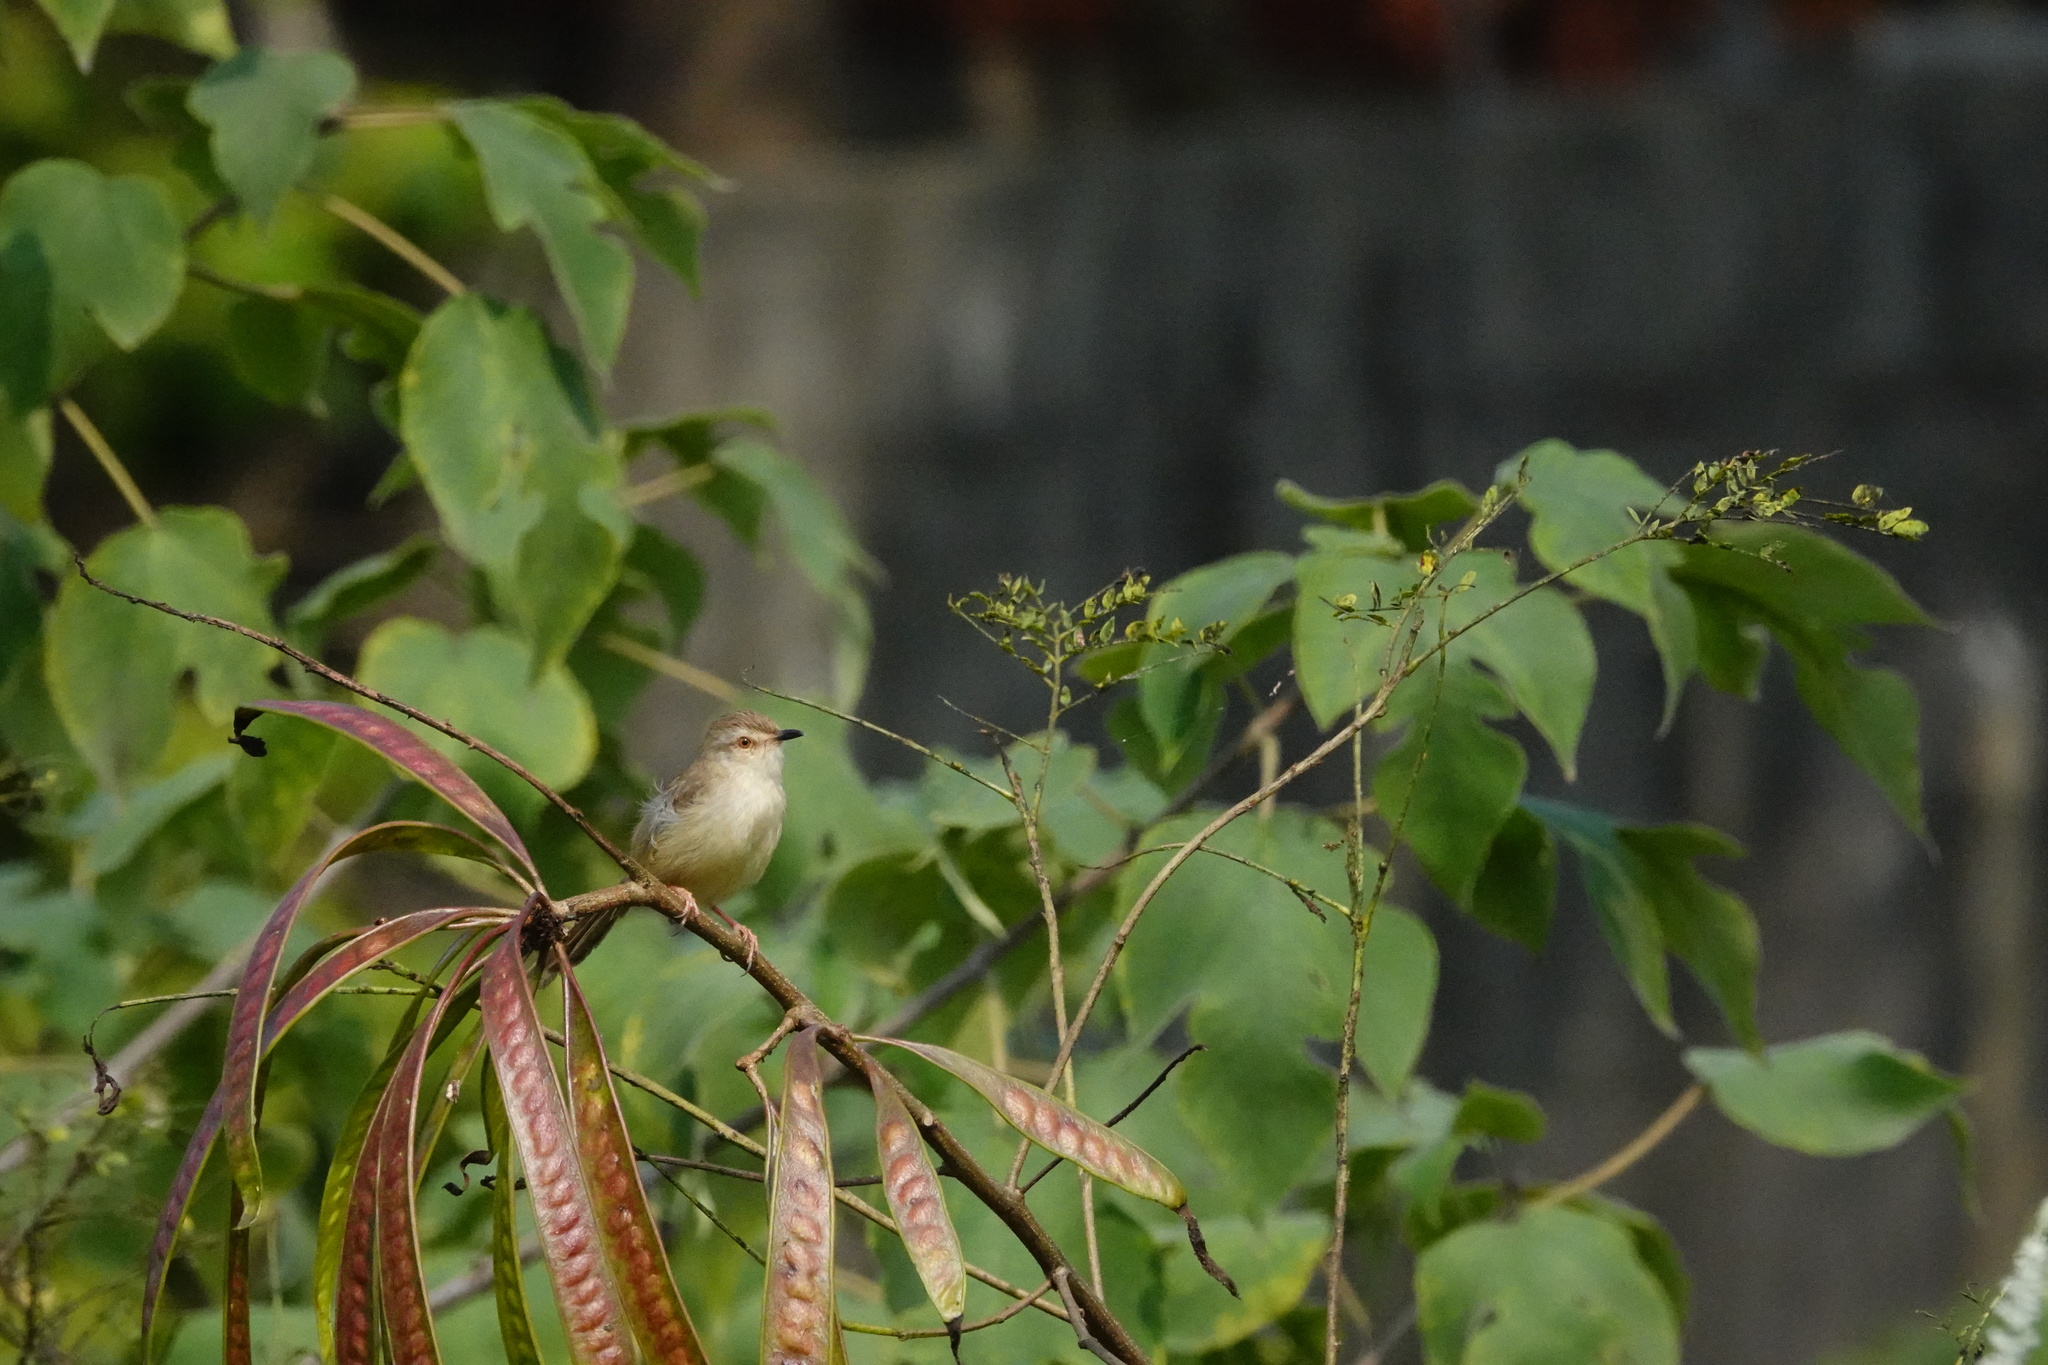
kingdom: Animalia
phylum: Chordata
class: Aves
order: Passeriformes
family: Cisticolidae
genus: Prinia
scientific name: Prinia inornata
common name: Plain prinia
